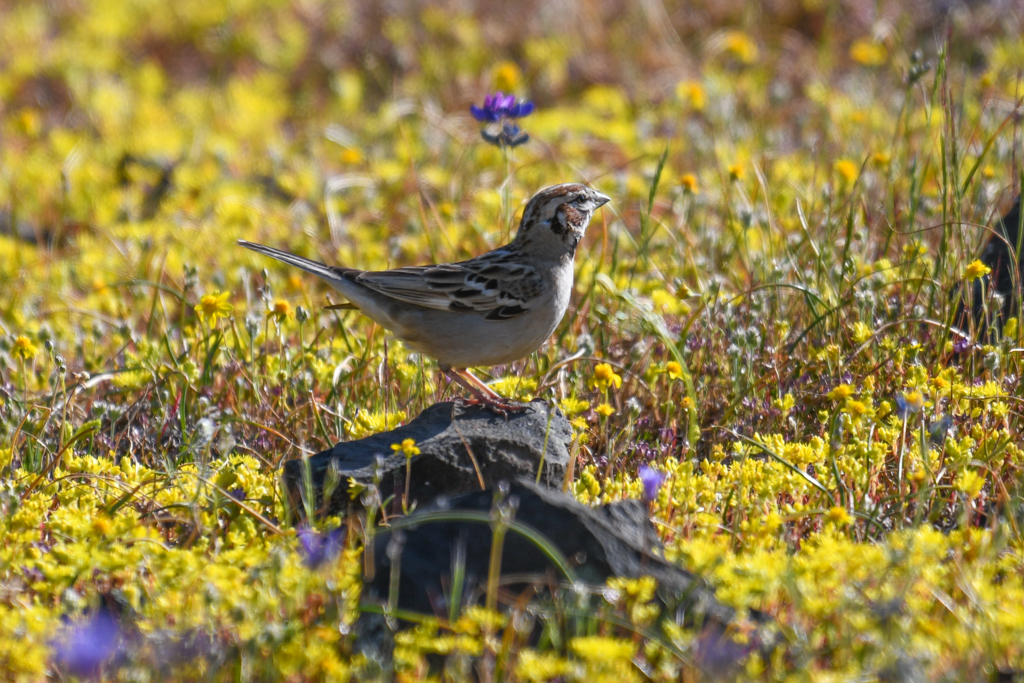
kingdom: Animalia
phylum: Chordata
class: Aves
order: Passeriformes
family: Passerellidae
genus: Chondestes
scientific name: Chondestes grammacus
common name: Lark sparrow
